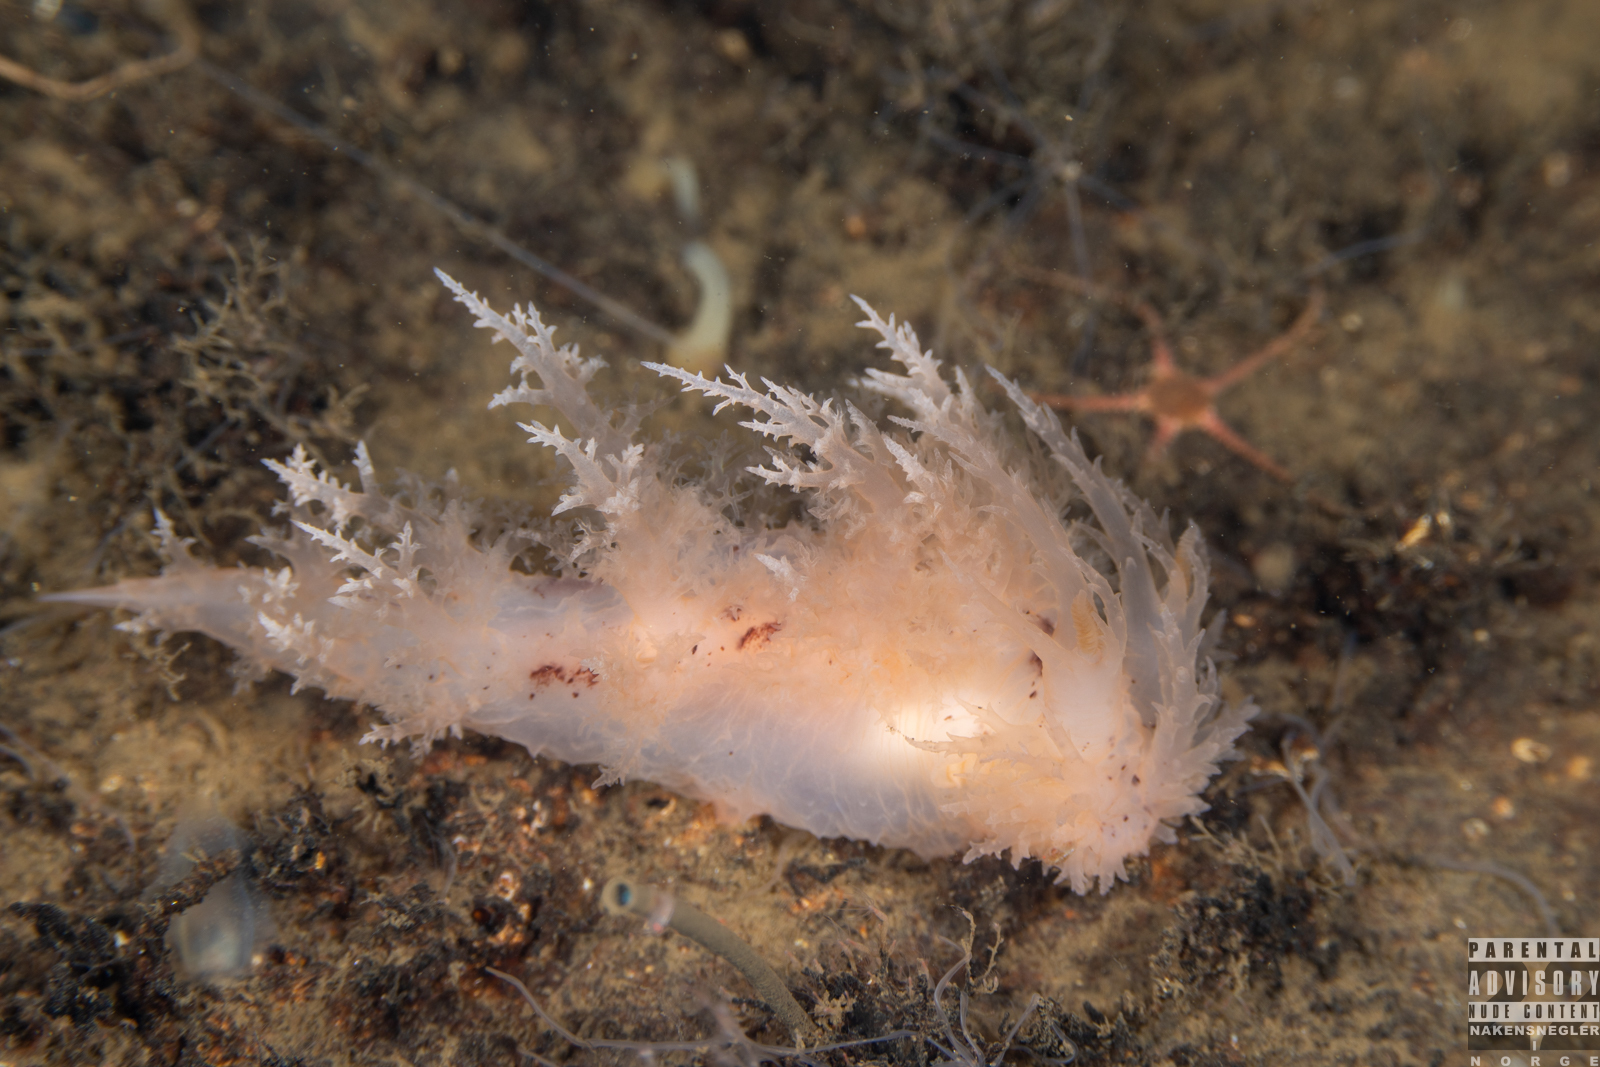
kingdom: Animalia
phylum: Mollusca
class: Gastropoda
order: Nudibranchia
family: Dendronotidae
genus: Dendronotus
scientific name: Dendronotus europaeus
